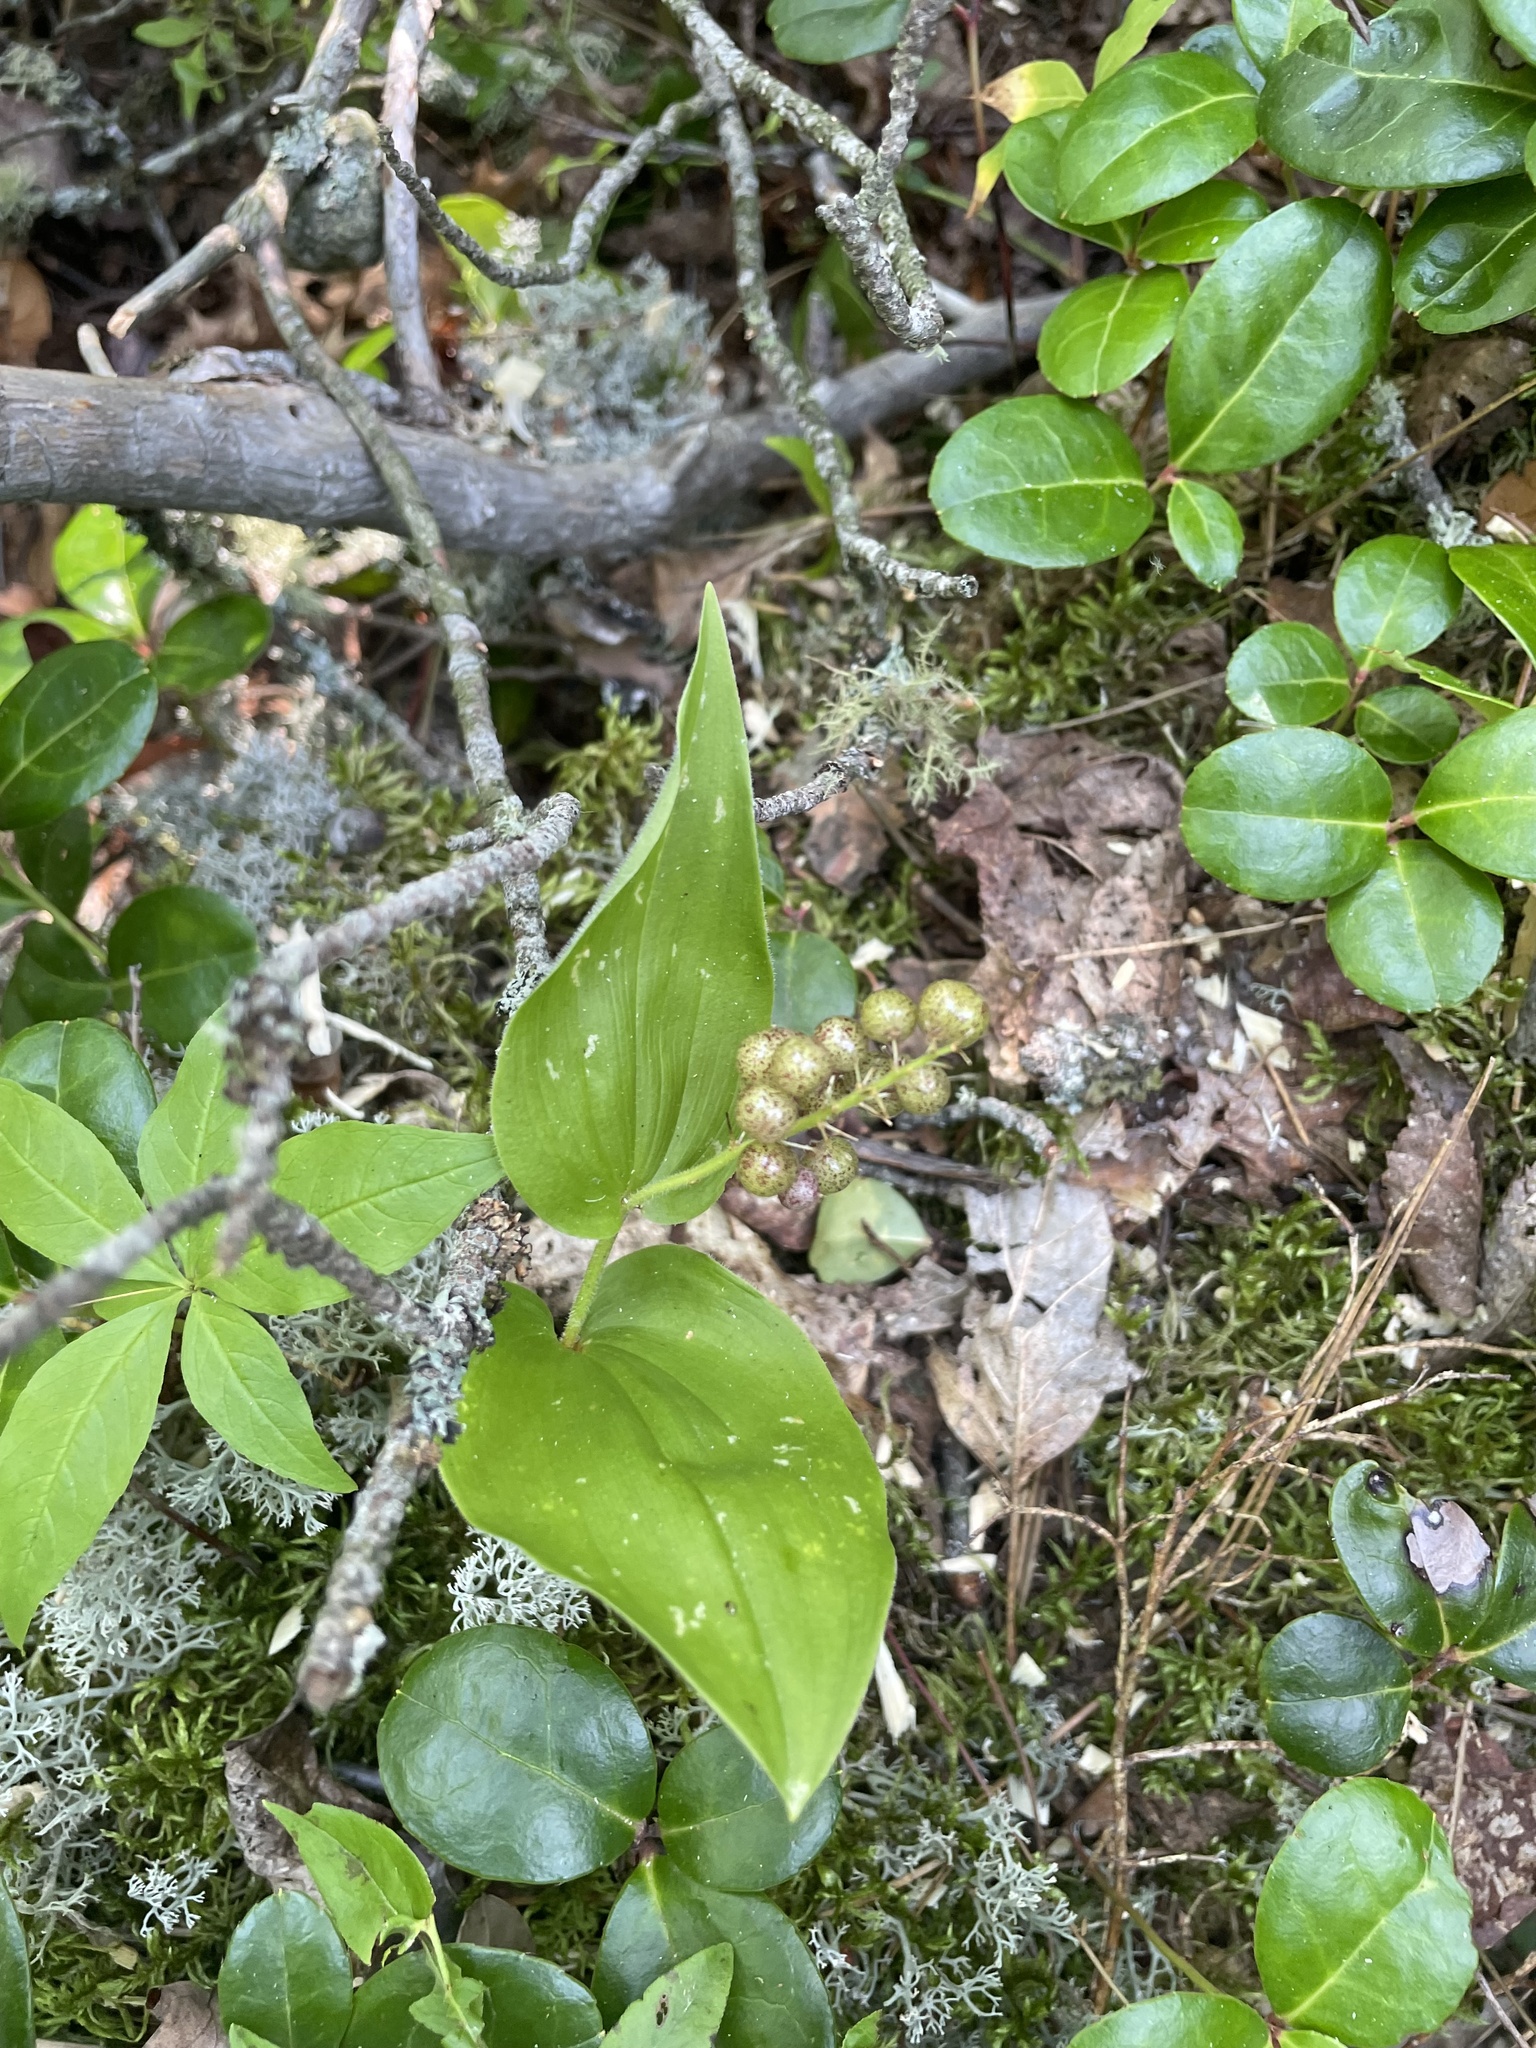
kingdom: Plantae
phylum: Tracheophyta
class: Liliopsida
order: Asparagales
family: Asparagaceae
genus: Maianthemum
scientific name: Maianthemum canadense
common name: False lily-of-the-valley
